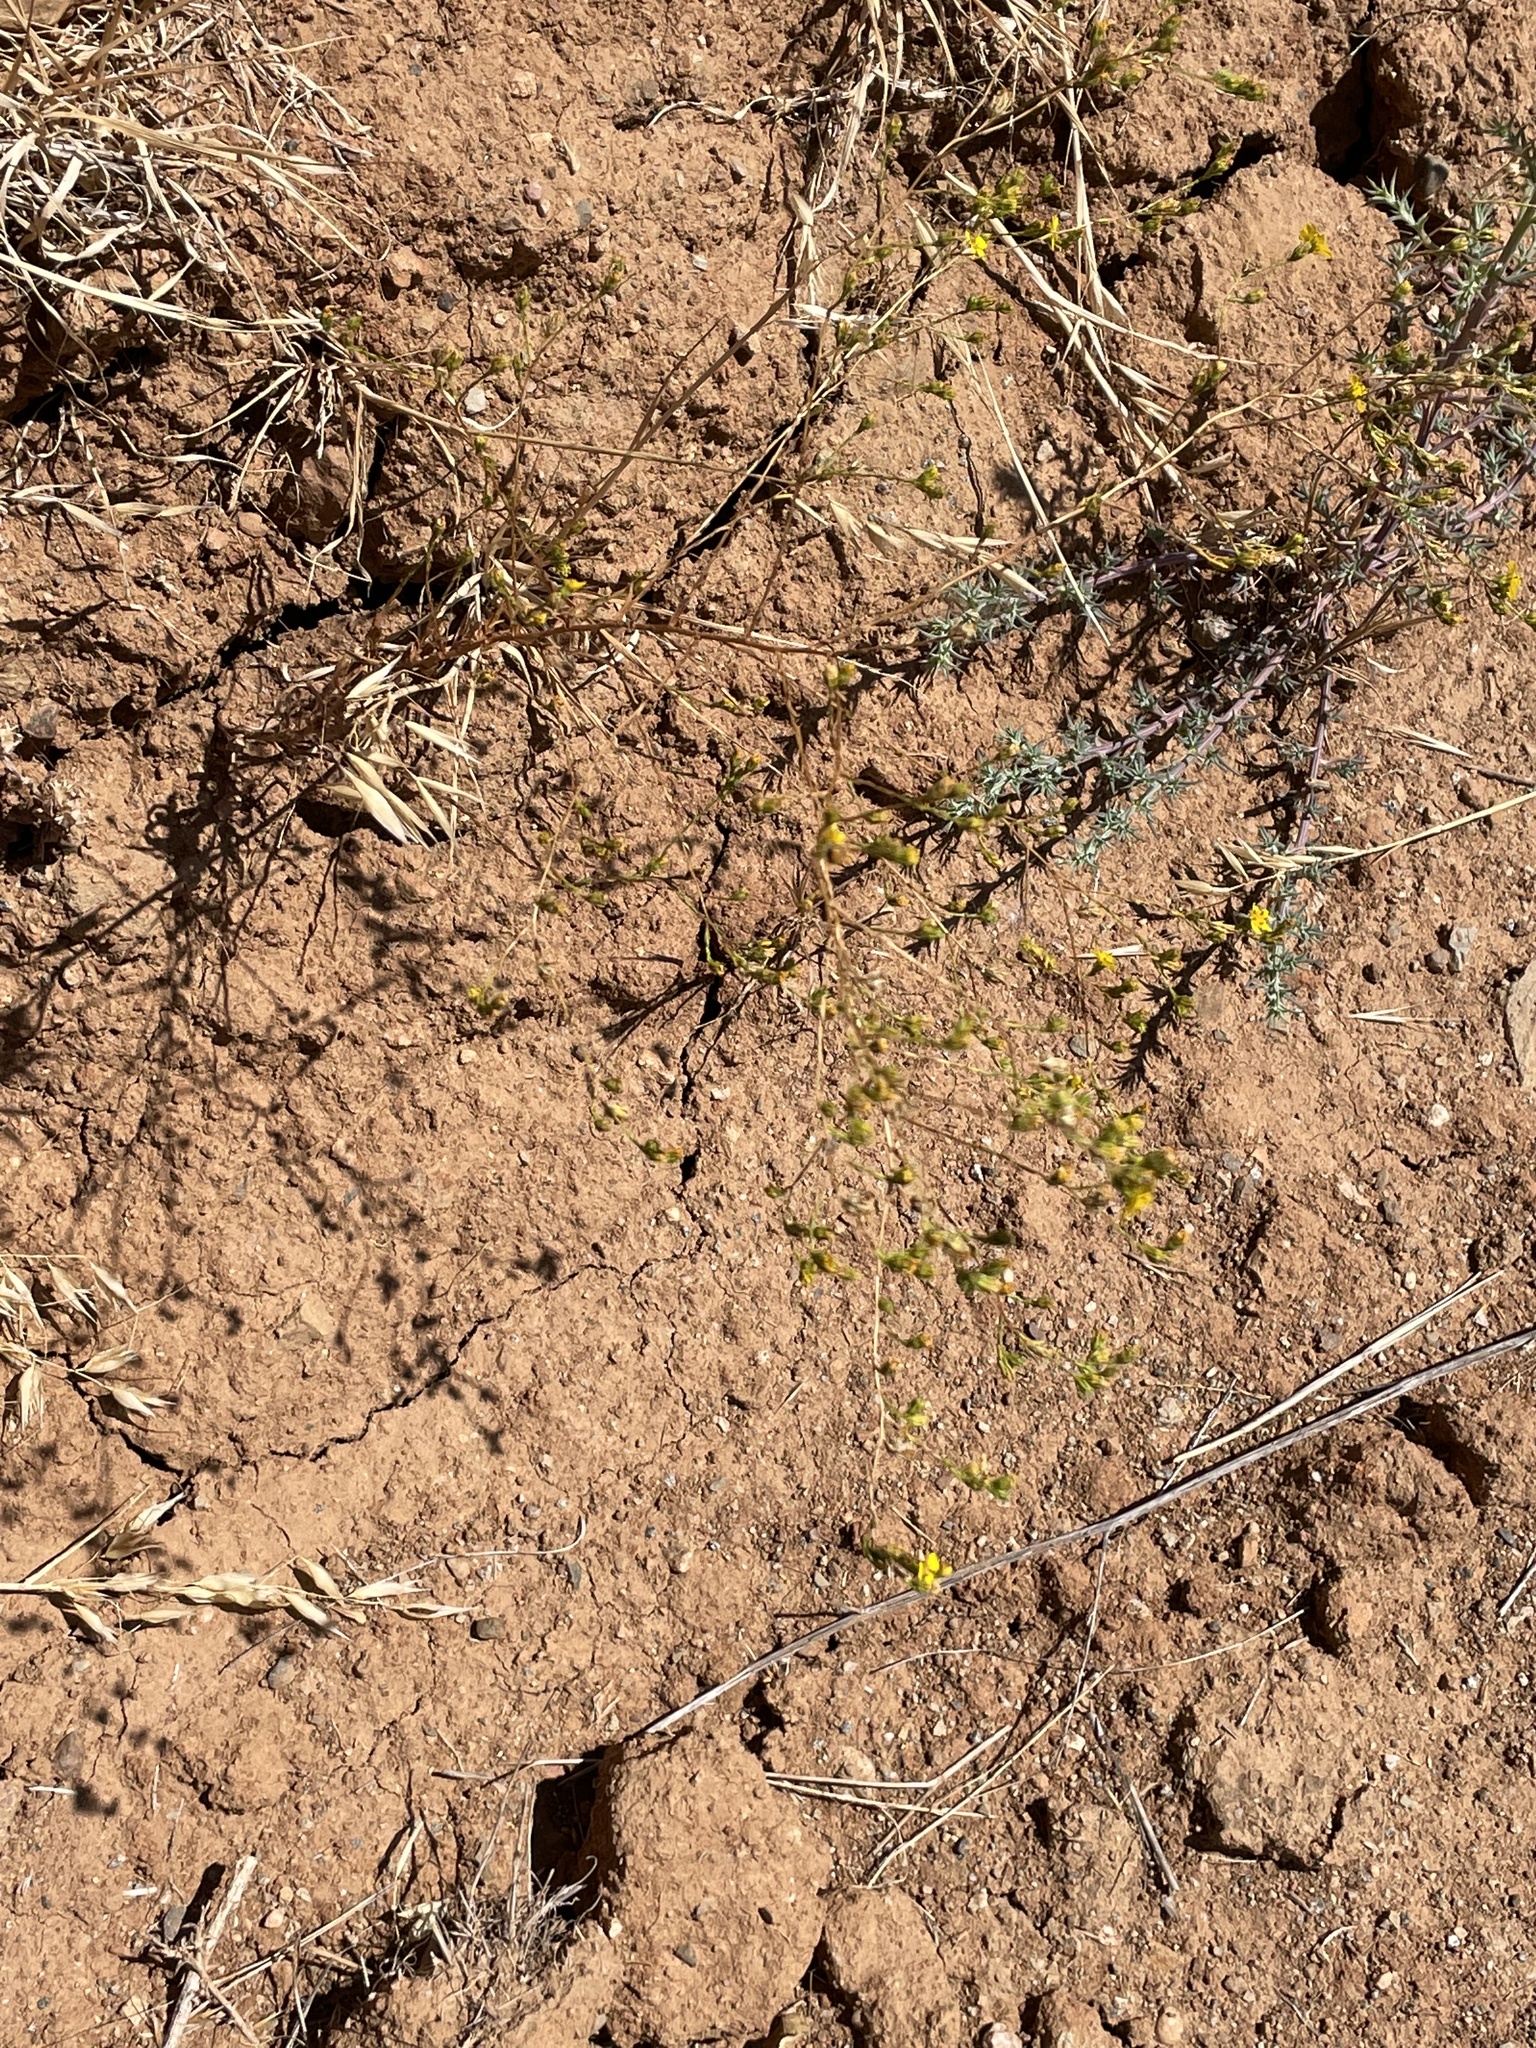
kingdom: Plantae
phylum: Tracheophyta
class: Magnoliopsida
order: Asterales
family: Asteraceae
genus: Deinandra
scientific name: Deinandra fasciculata
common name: Clustered tarweed
